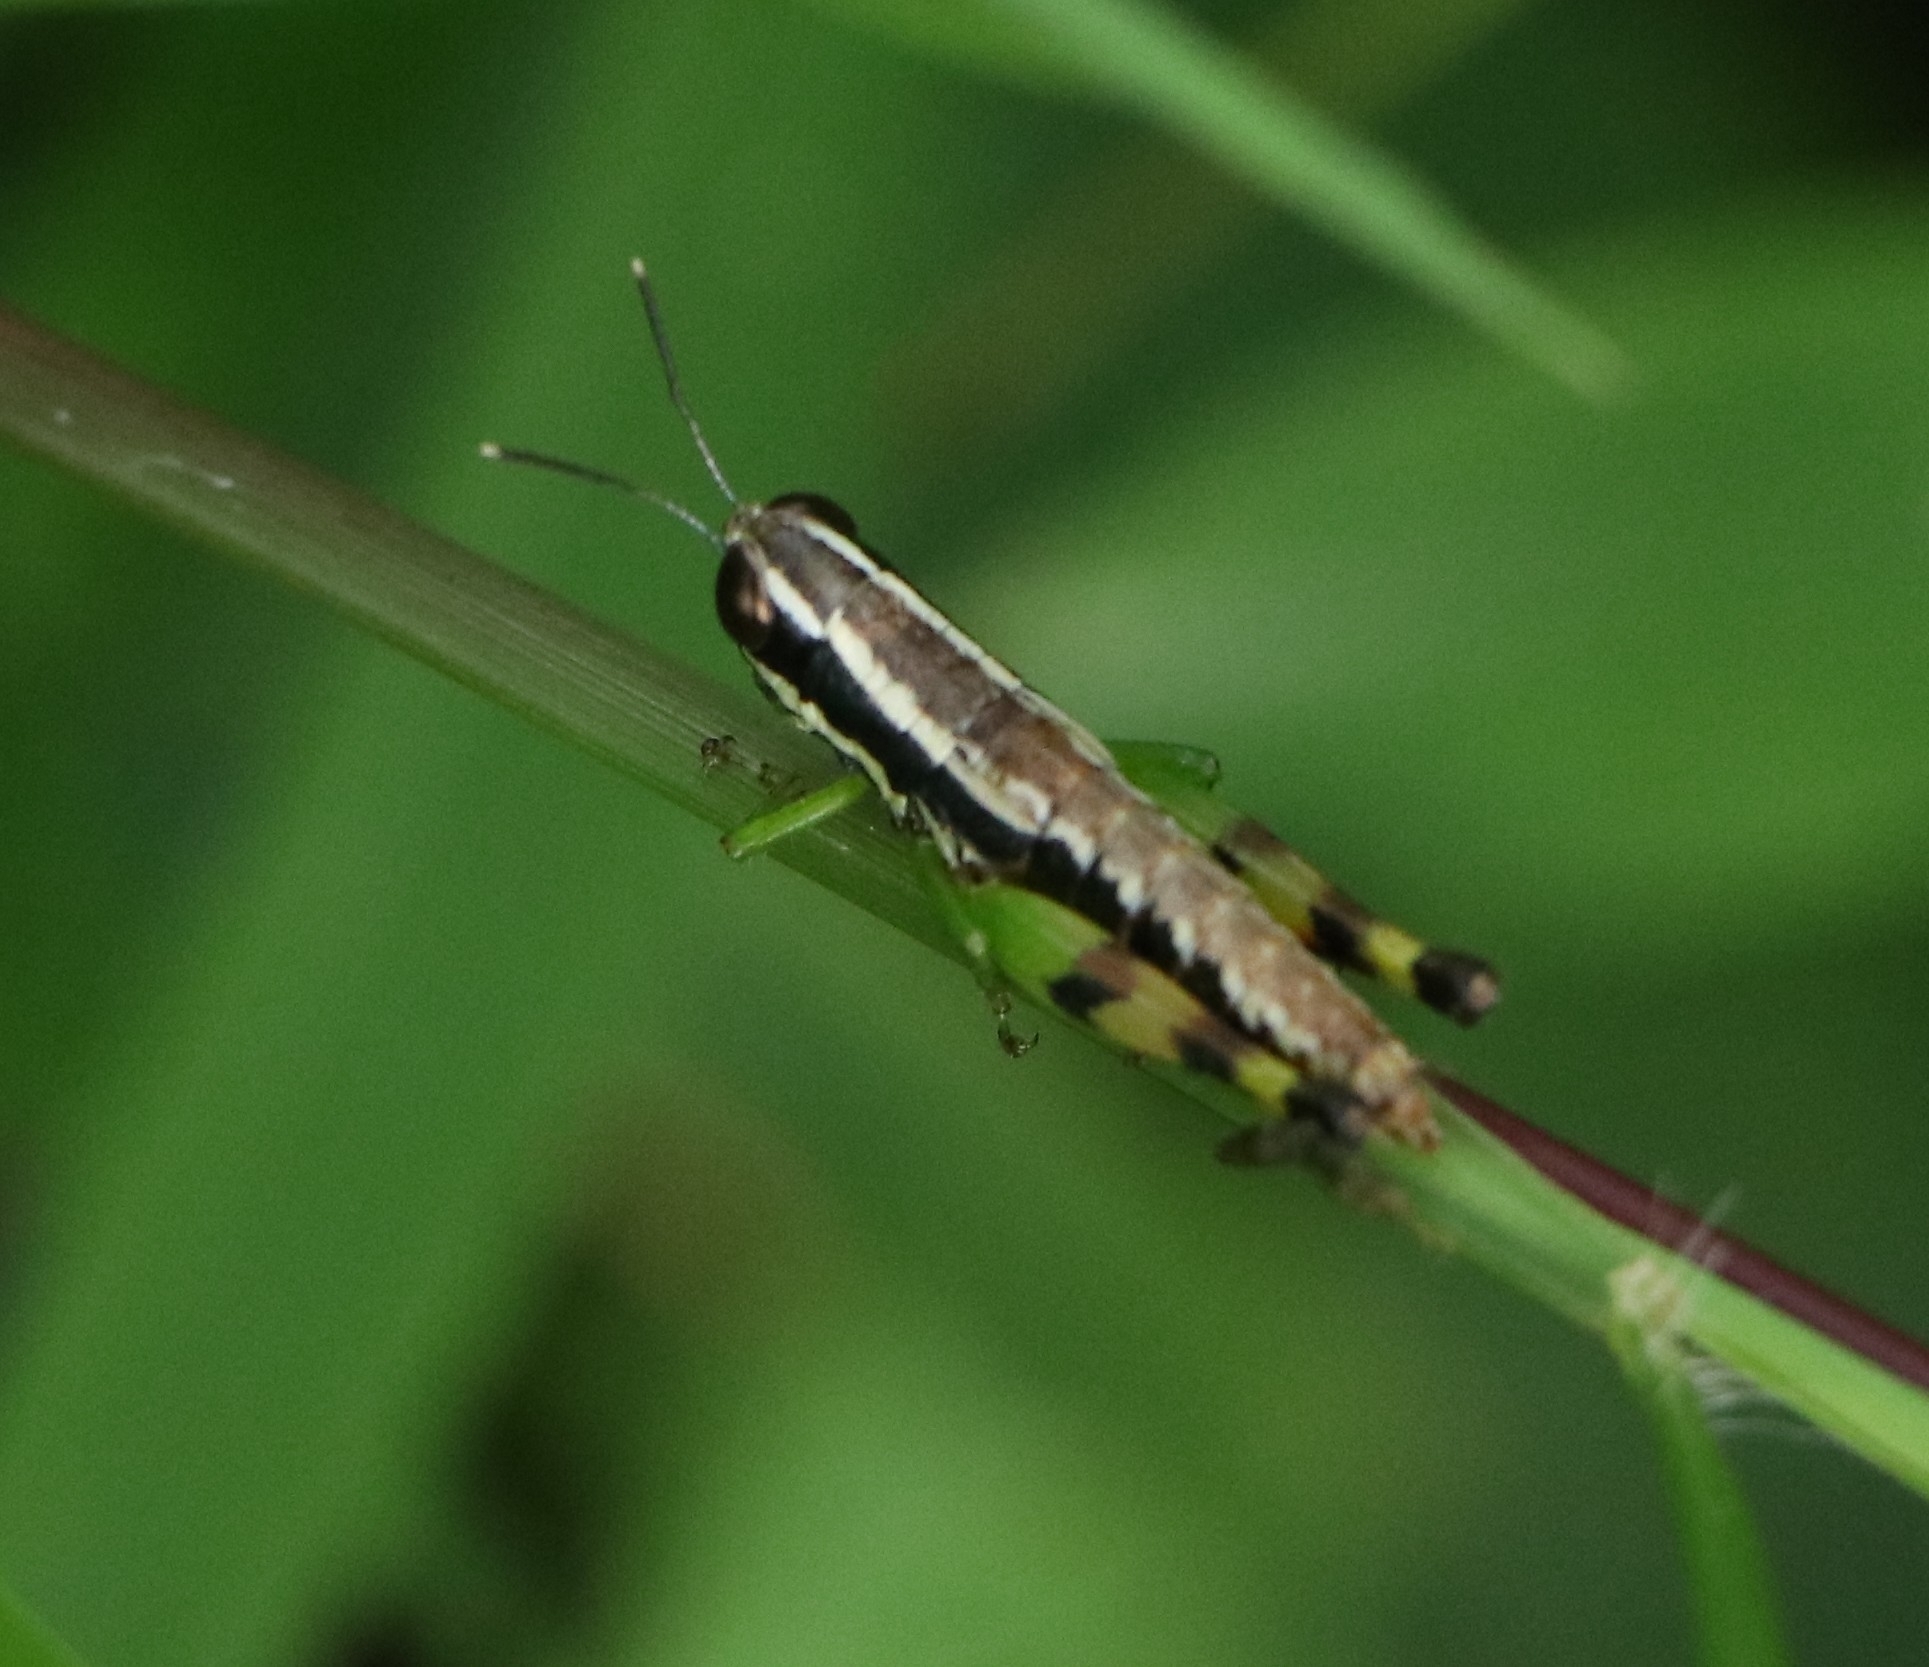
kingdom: Animalia
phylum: Arthropoda
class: Insecta
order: Orthoptera
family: Acrididae
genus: Chitaura
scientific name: Chitaura indica
